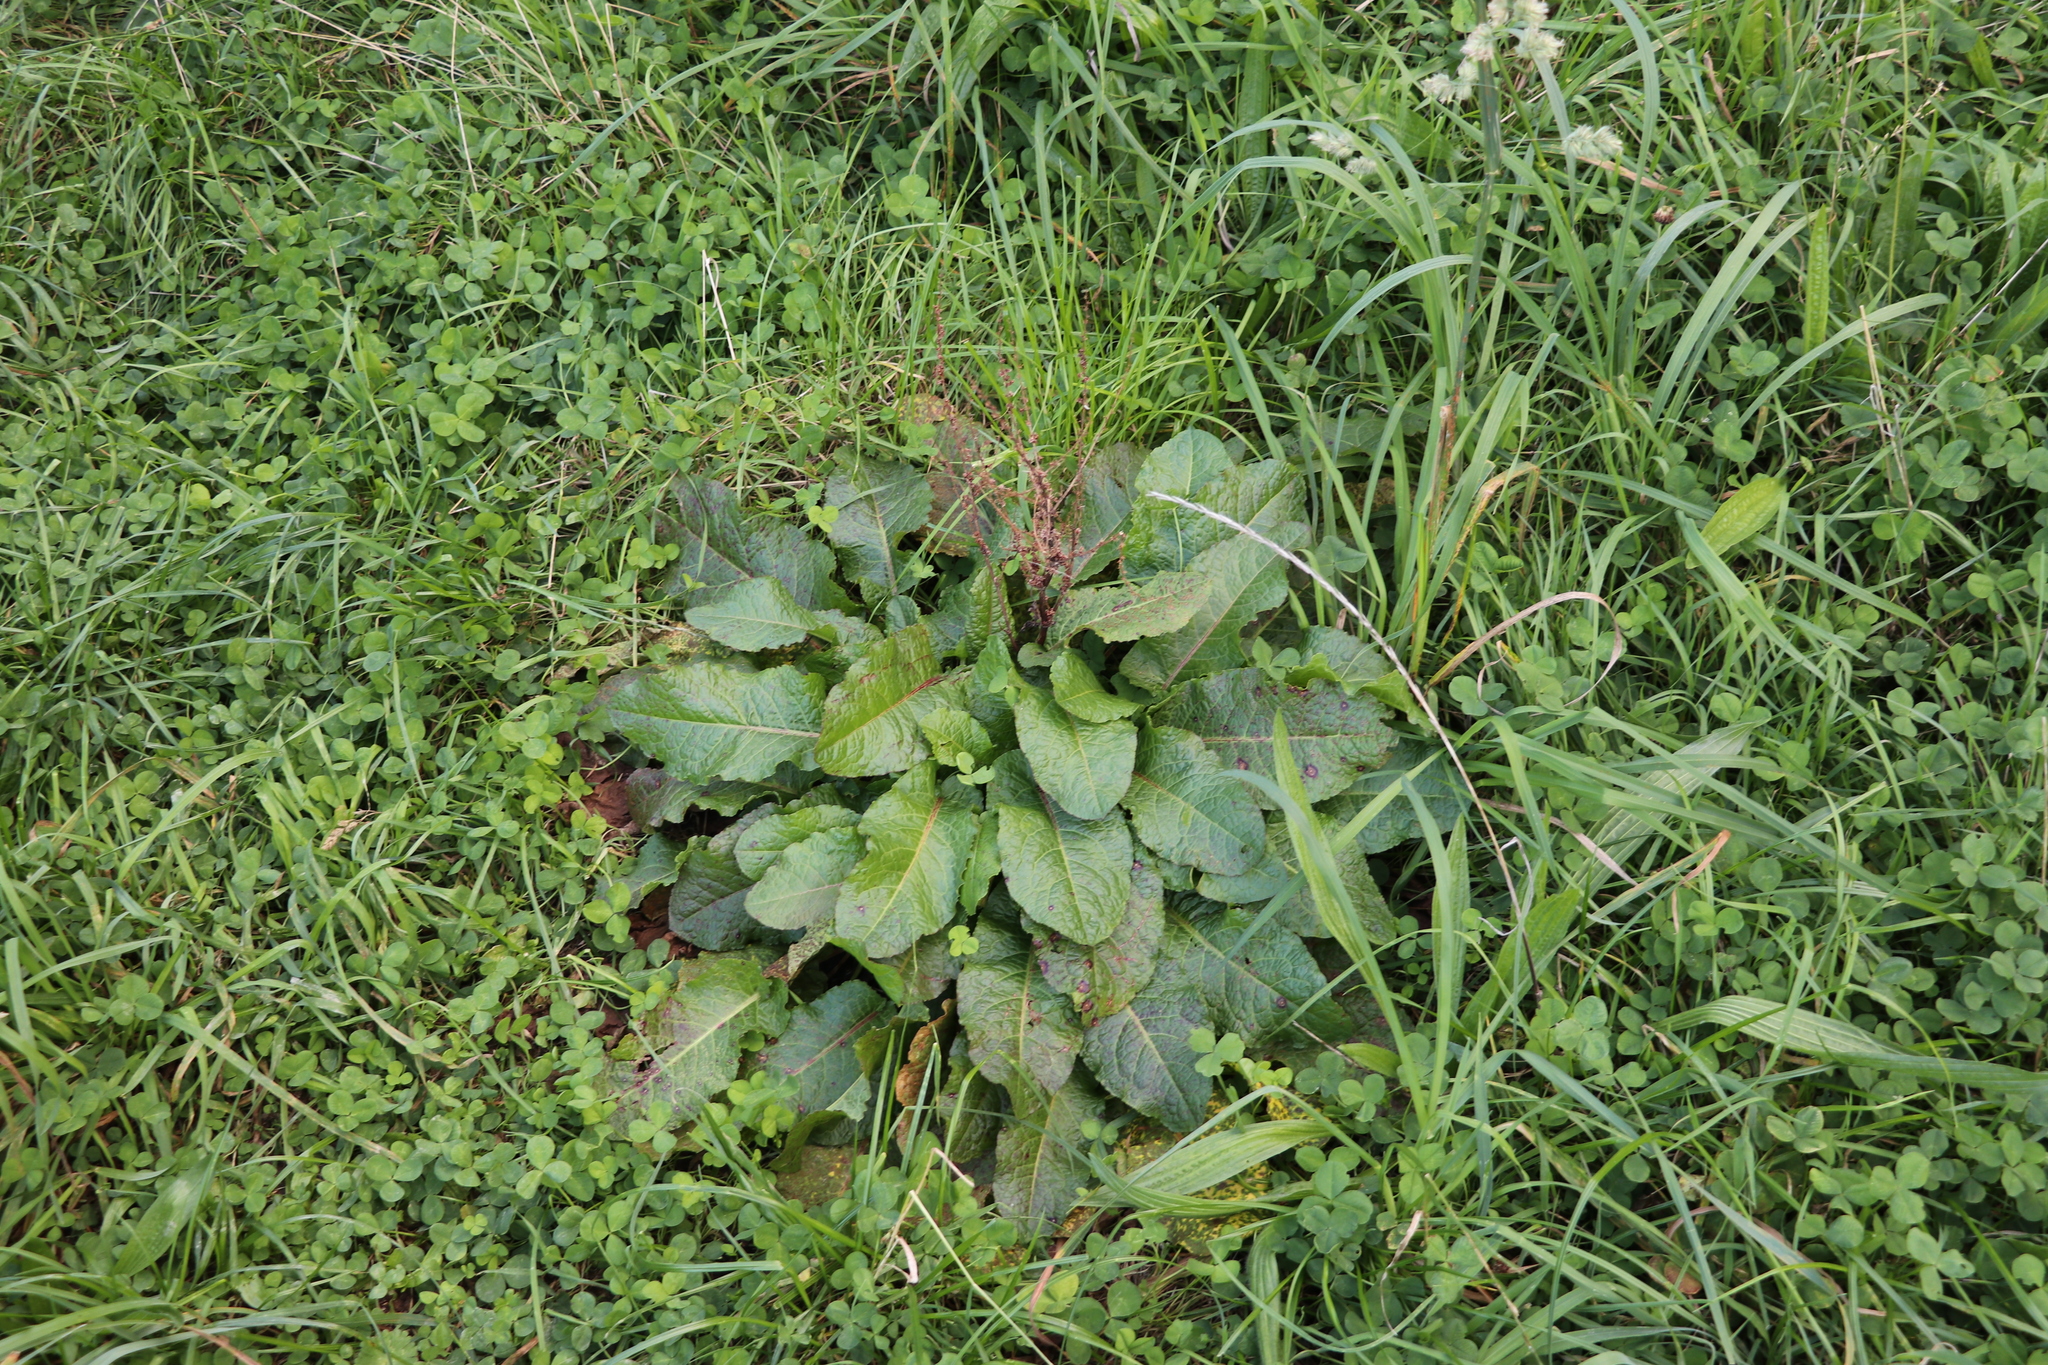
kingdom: Plantae
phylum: Tracheophyta
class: Magnoliopsida
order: Caryophyllales
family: Polygonaceae
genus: Rumex
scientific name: Rumex obtusifolius
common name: Bitter dock
